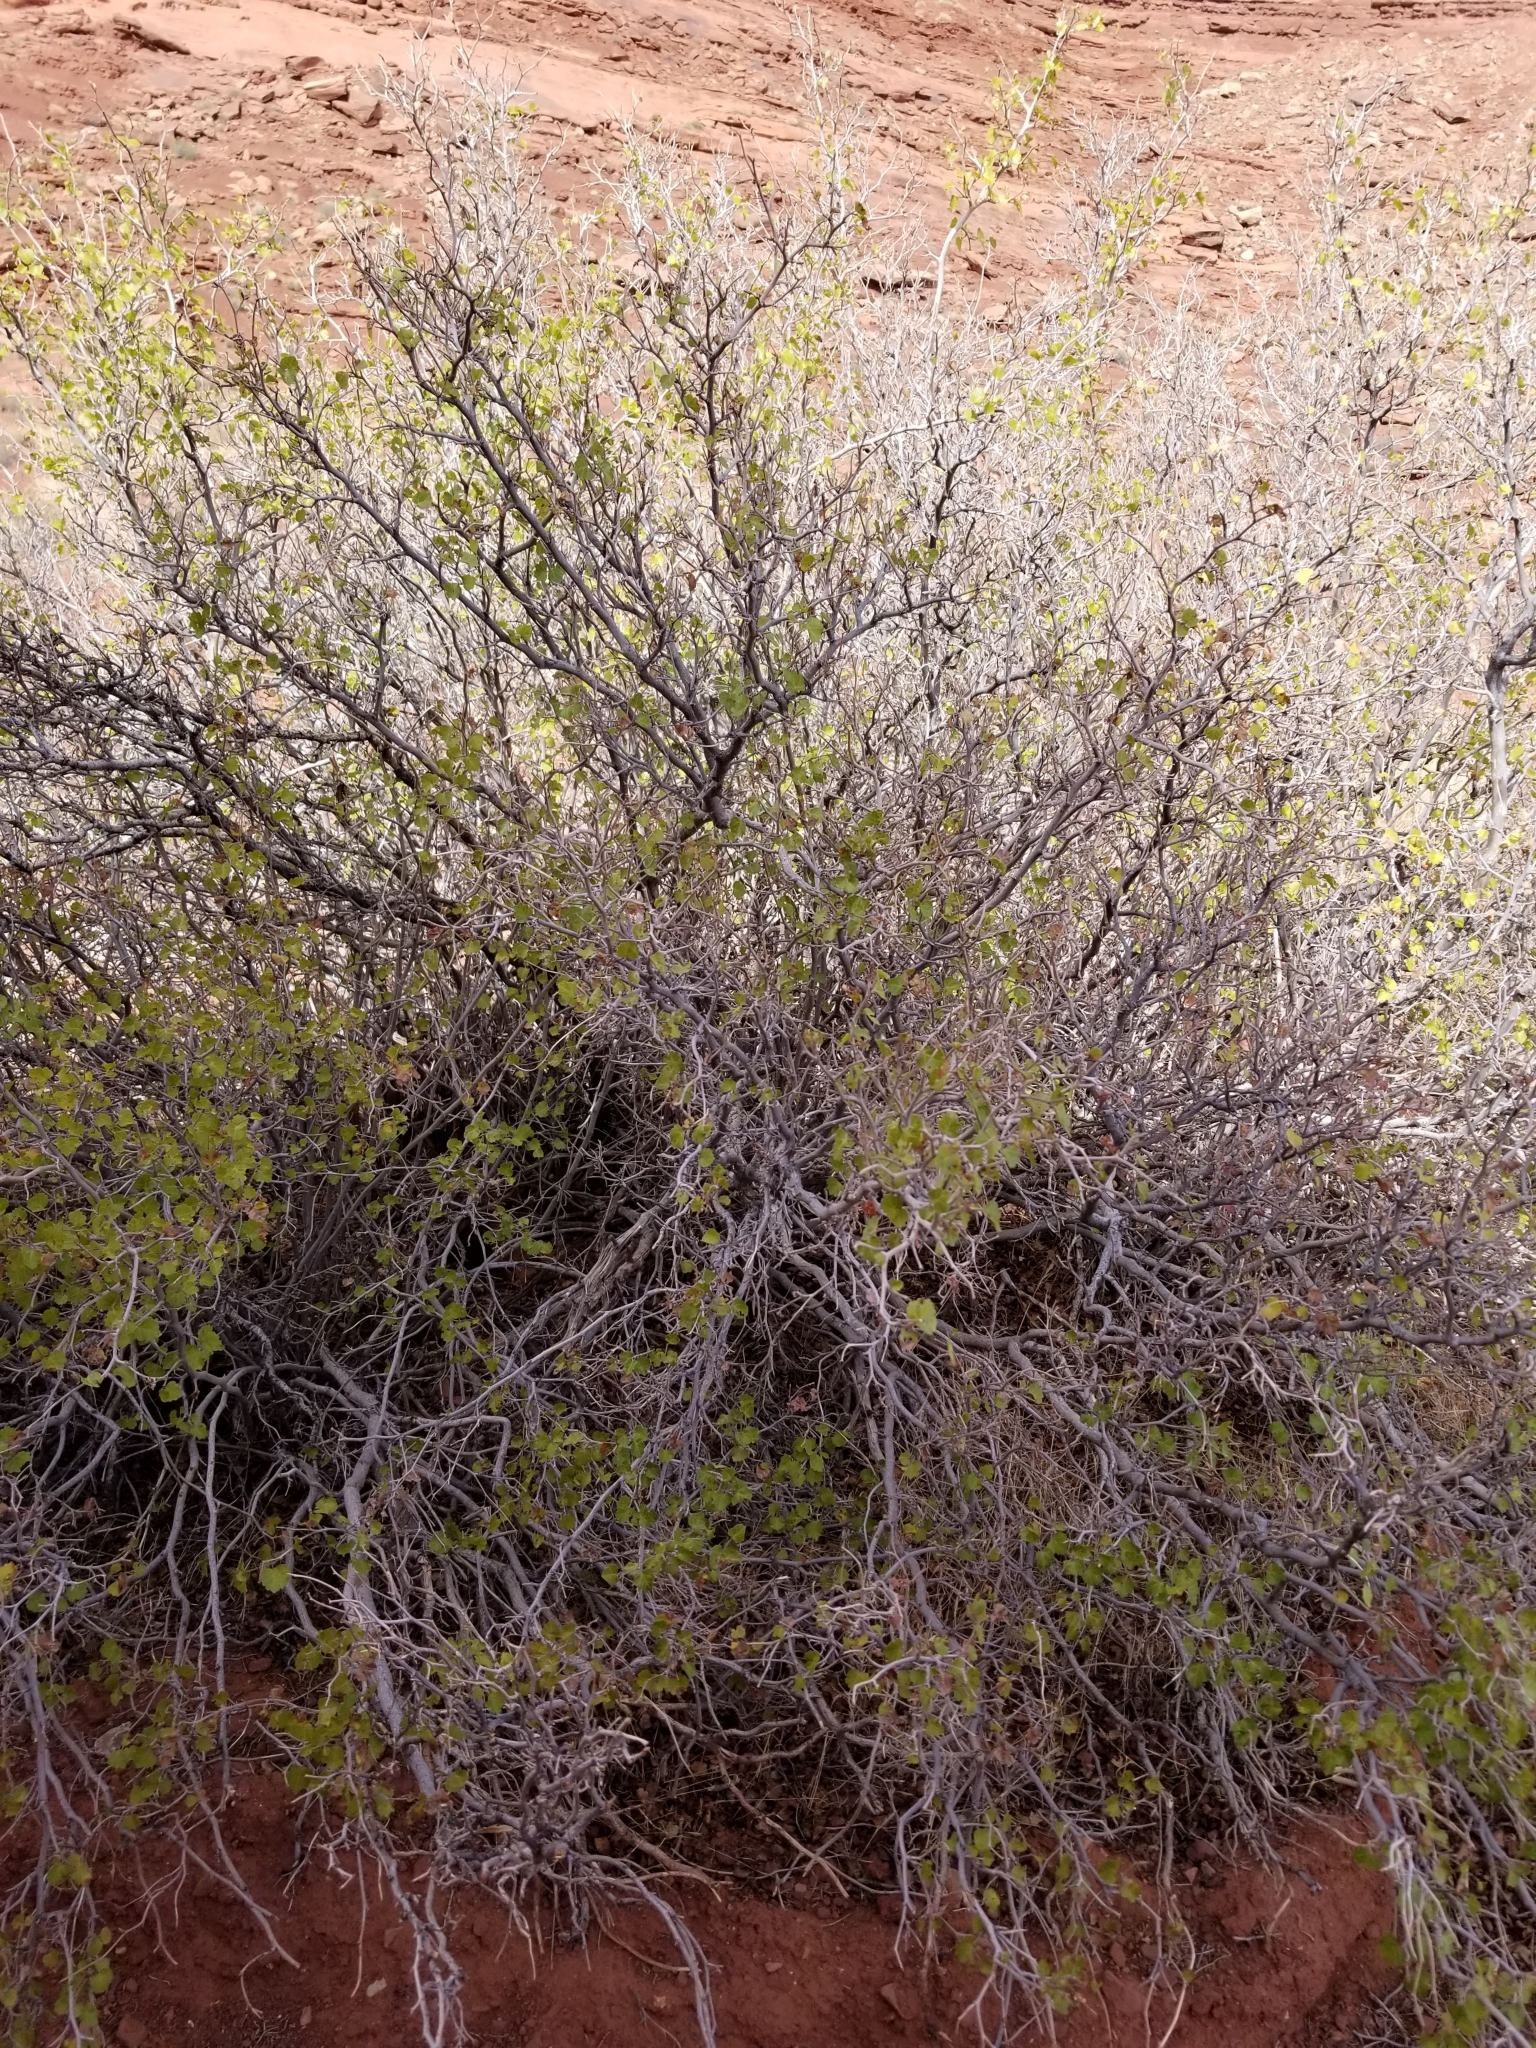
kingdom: Plantae
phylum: Tracheophyta
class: Magnoliopsida
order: Sapindales
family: Anacardiaceae
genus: Rhus
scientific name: Rhus trilobata
